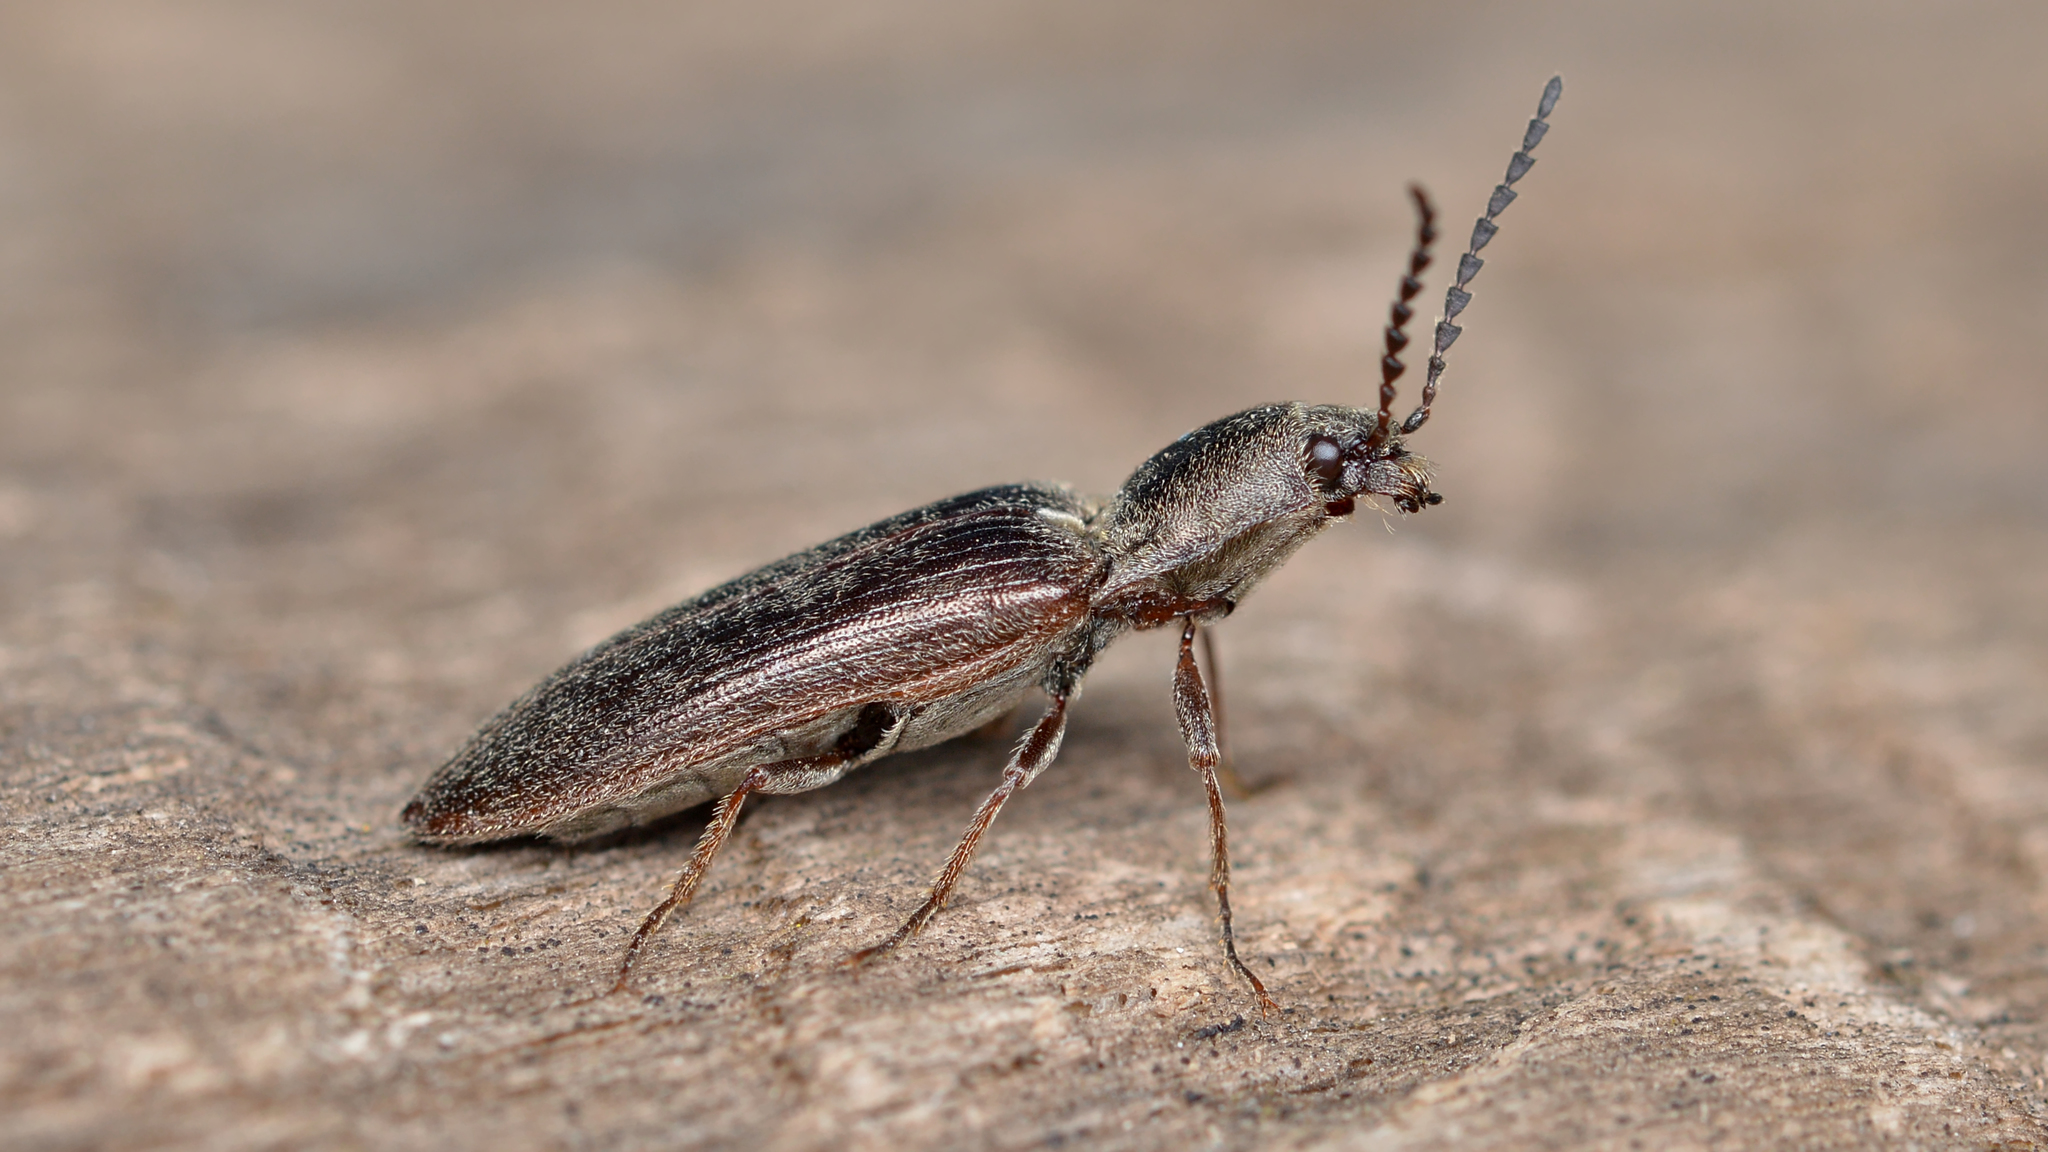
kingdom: Animalia
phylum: Arthropoda
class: Insecta
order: Coleoptera
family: Elateridae
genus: Sylvanelater
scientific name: Sylvanelater cylindriformis
